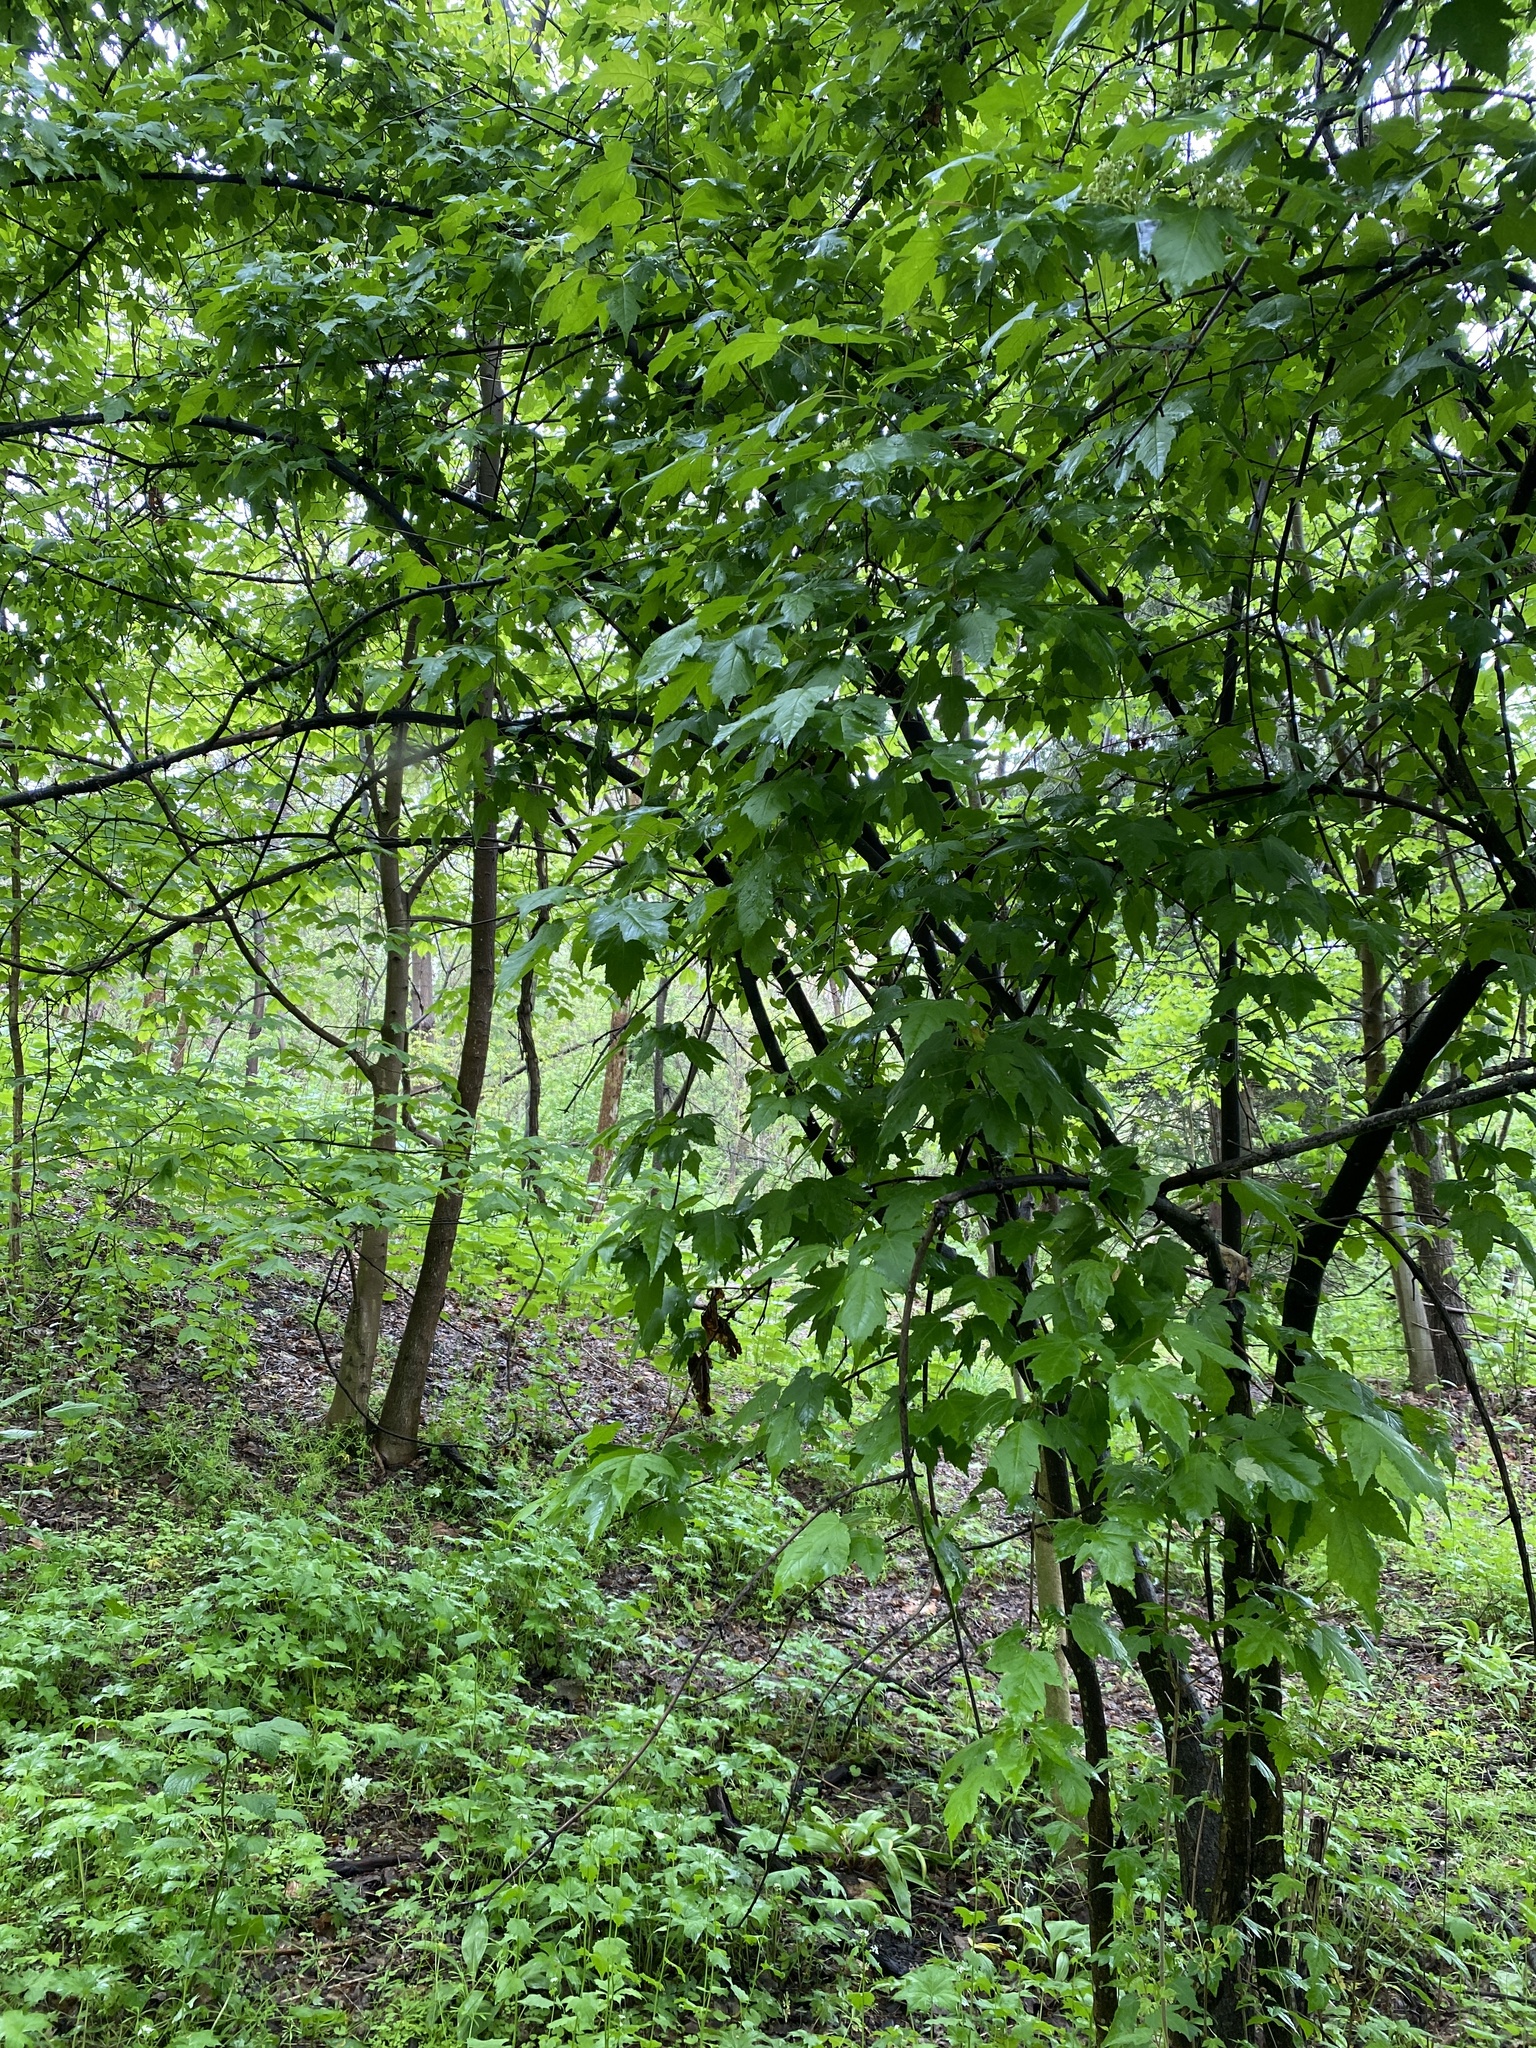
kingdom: Plantae
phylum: Tracheophyta
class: Magnoliopsida
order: Sapindales
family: Sapindaceae
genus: Acer
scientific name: Acer tataricum
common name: Tartar maple
